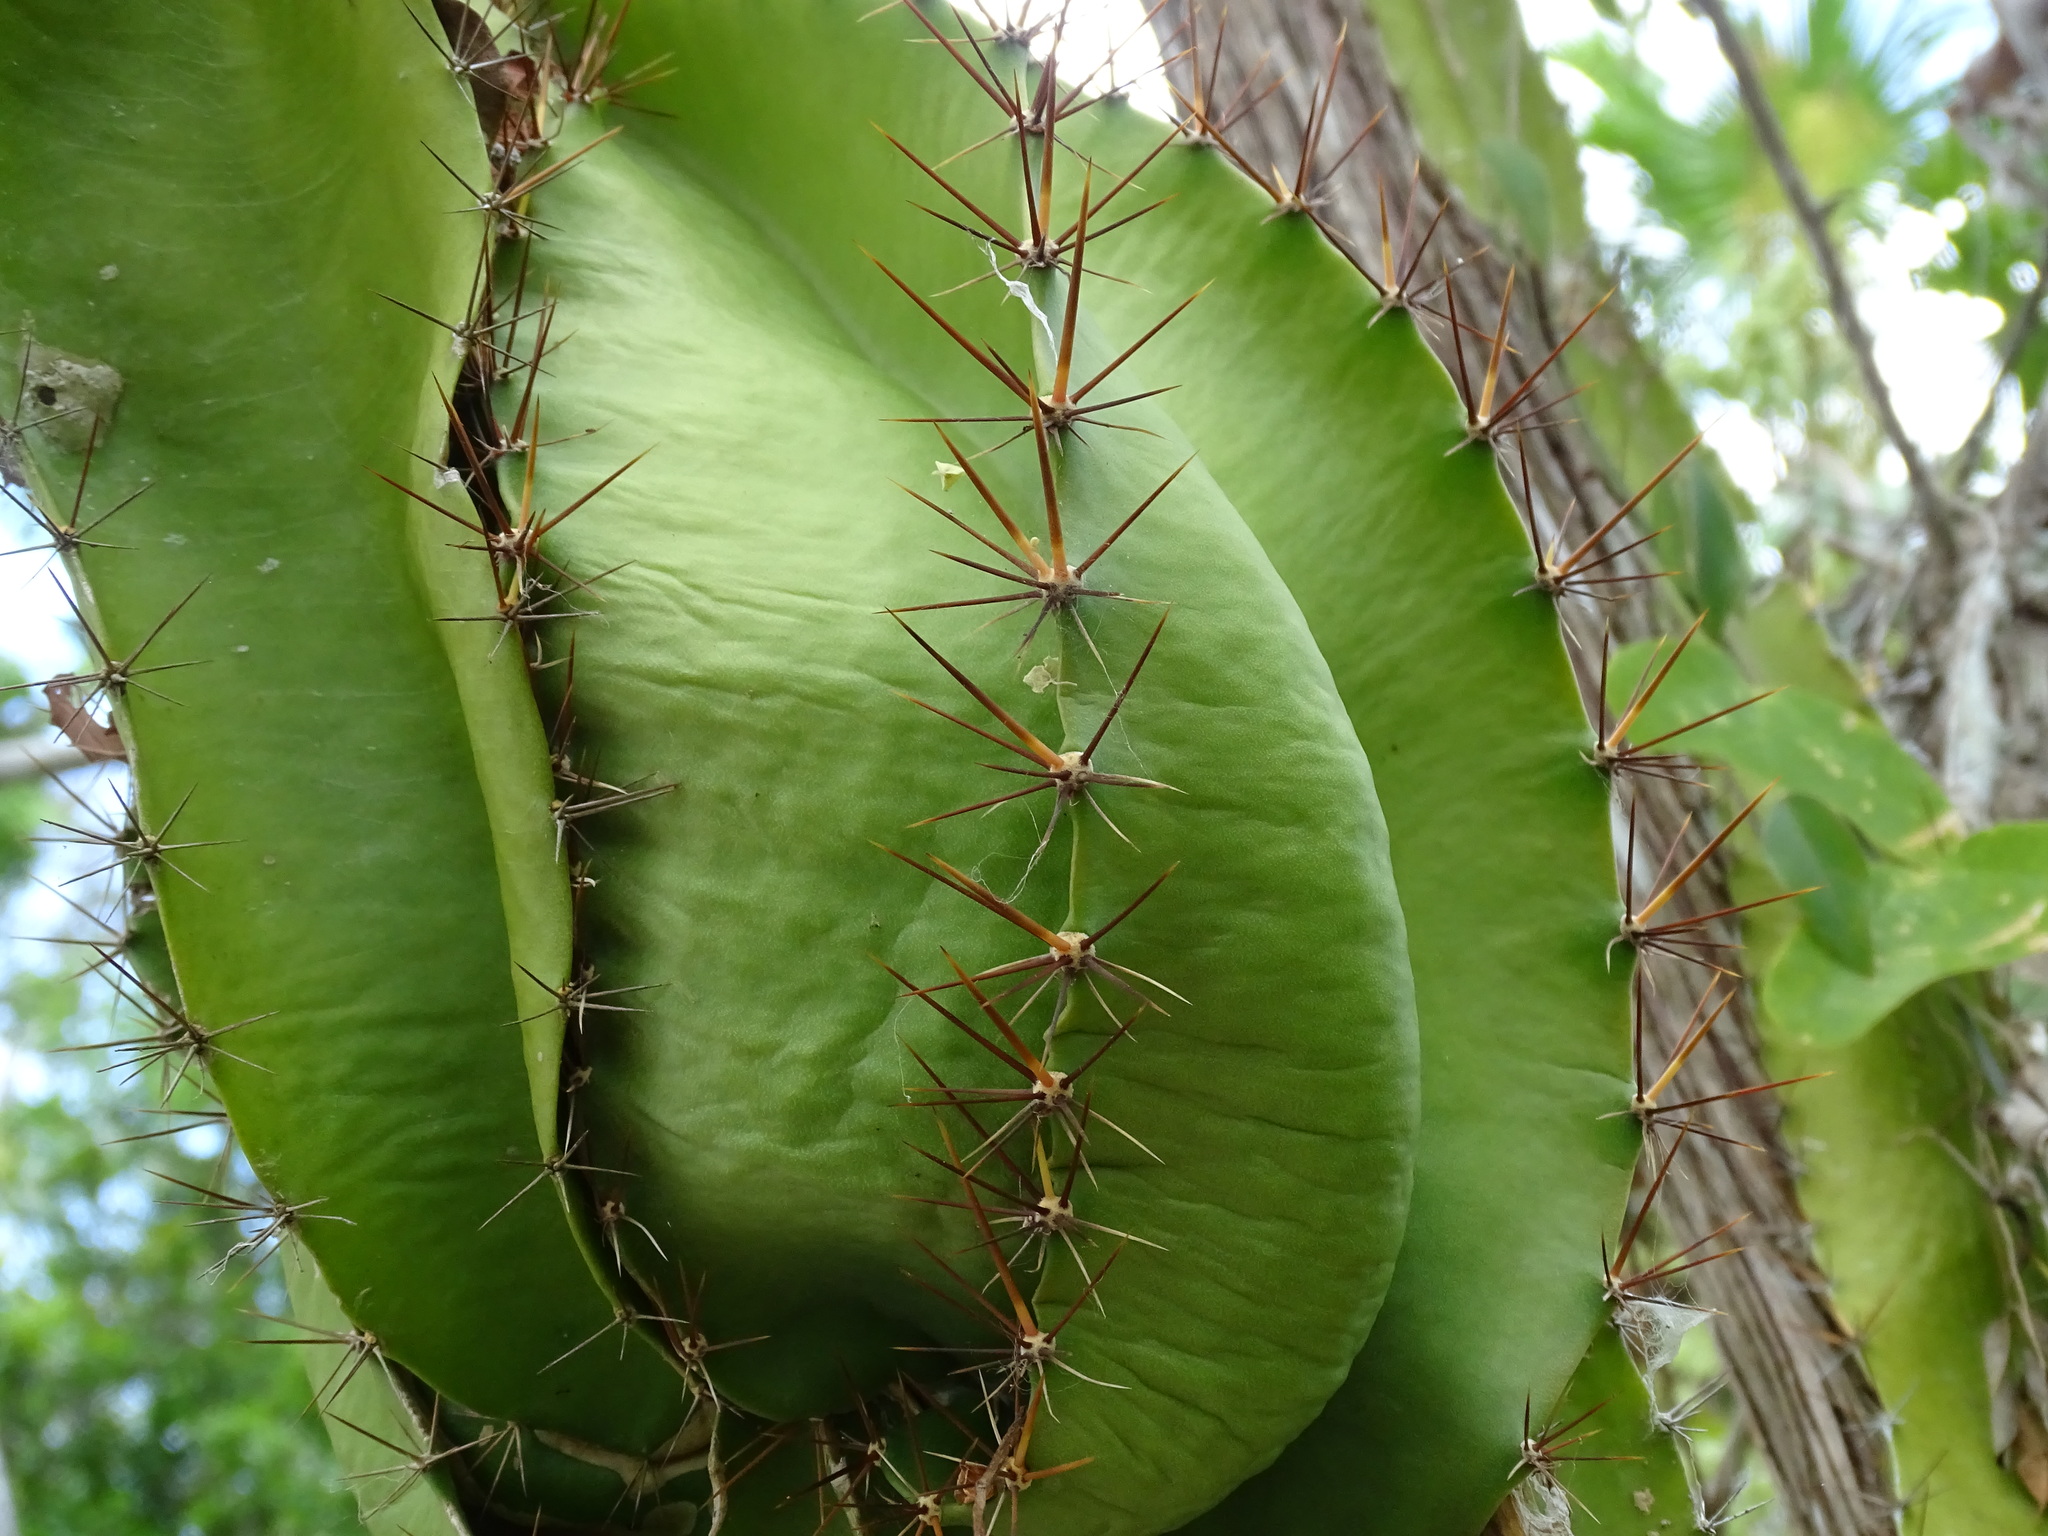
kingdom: Plantae
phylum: Tracheophyta
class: Magnoliopsida
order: Caryophyllales
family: Cactaceae
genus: Deamia
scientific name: Deamia testudo
